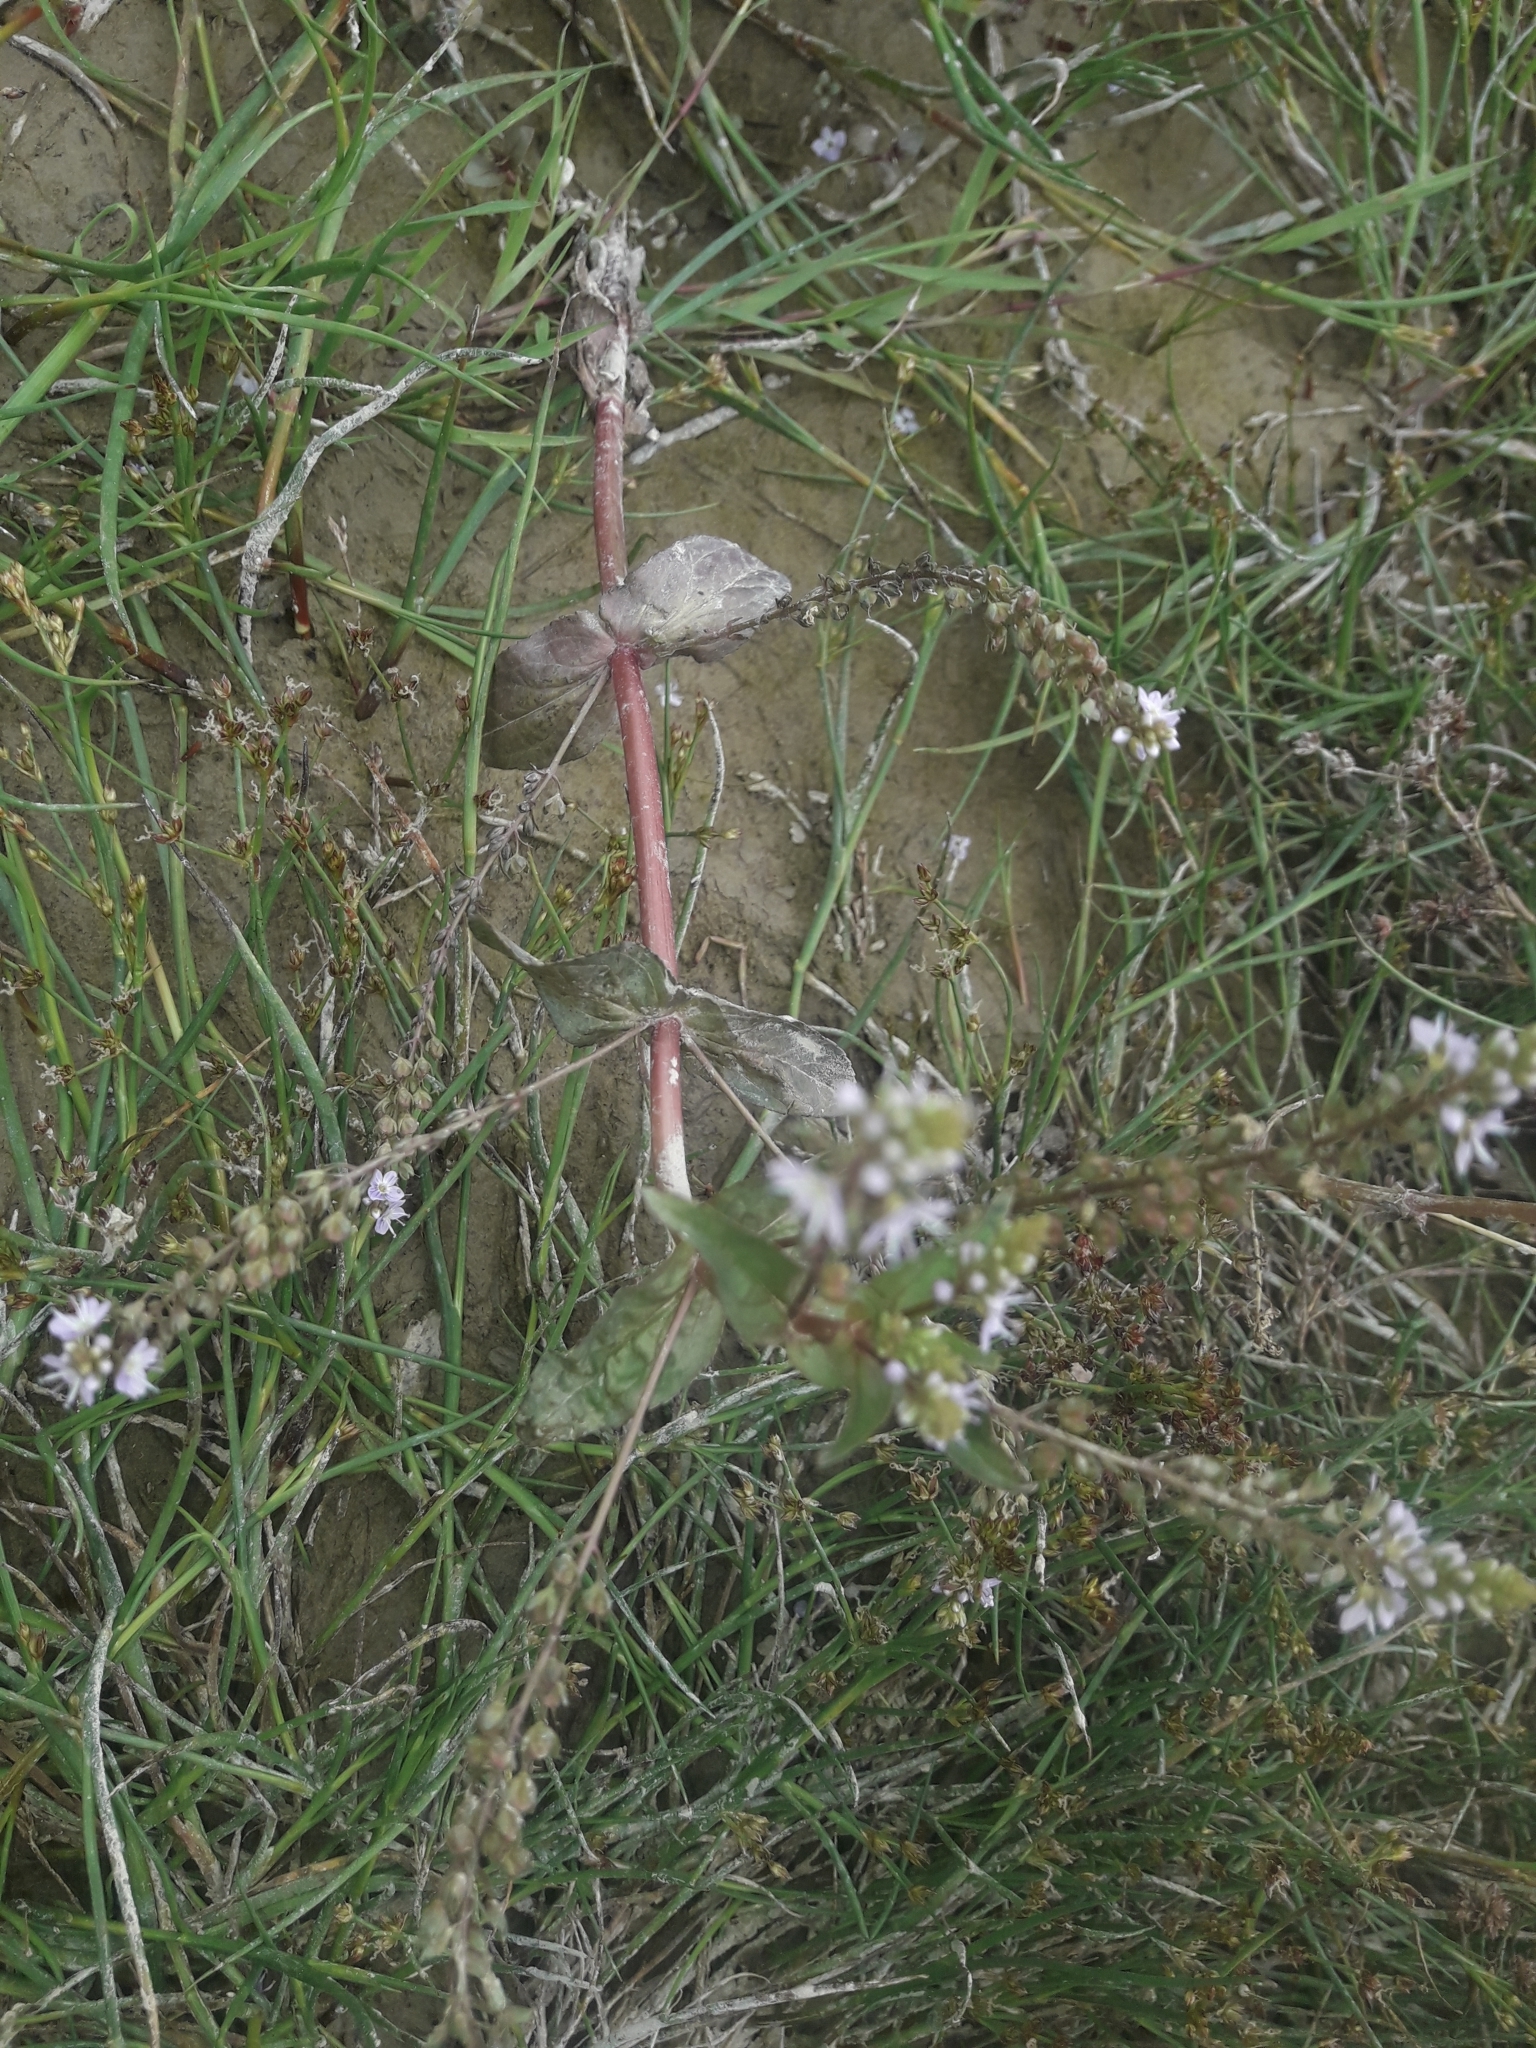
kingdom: Plantae
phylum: Tracheophyta
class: Magnoliopsida
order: Lamiales
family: Plantaginaceae
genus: Veronica
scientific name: Veronica anagallis-aquatica
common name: Water speedwell
